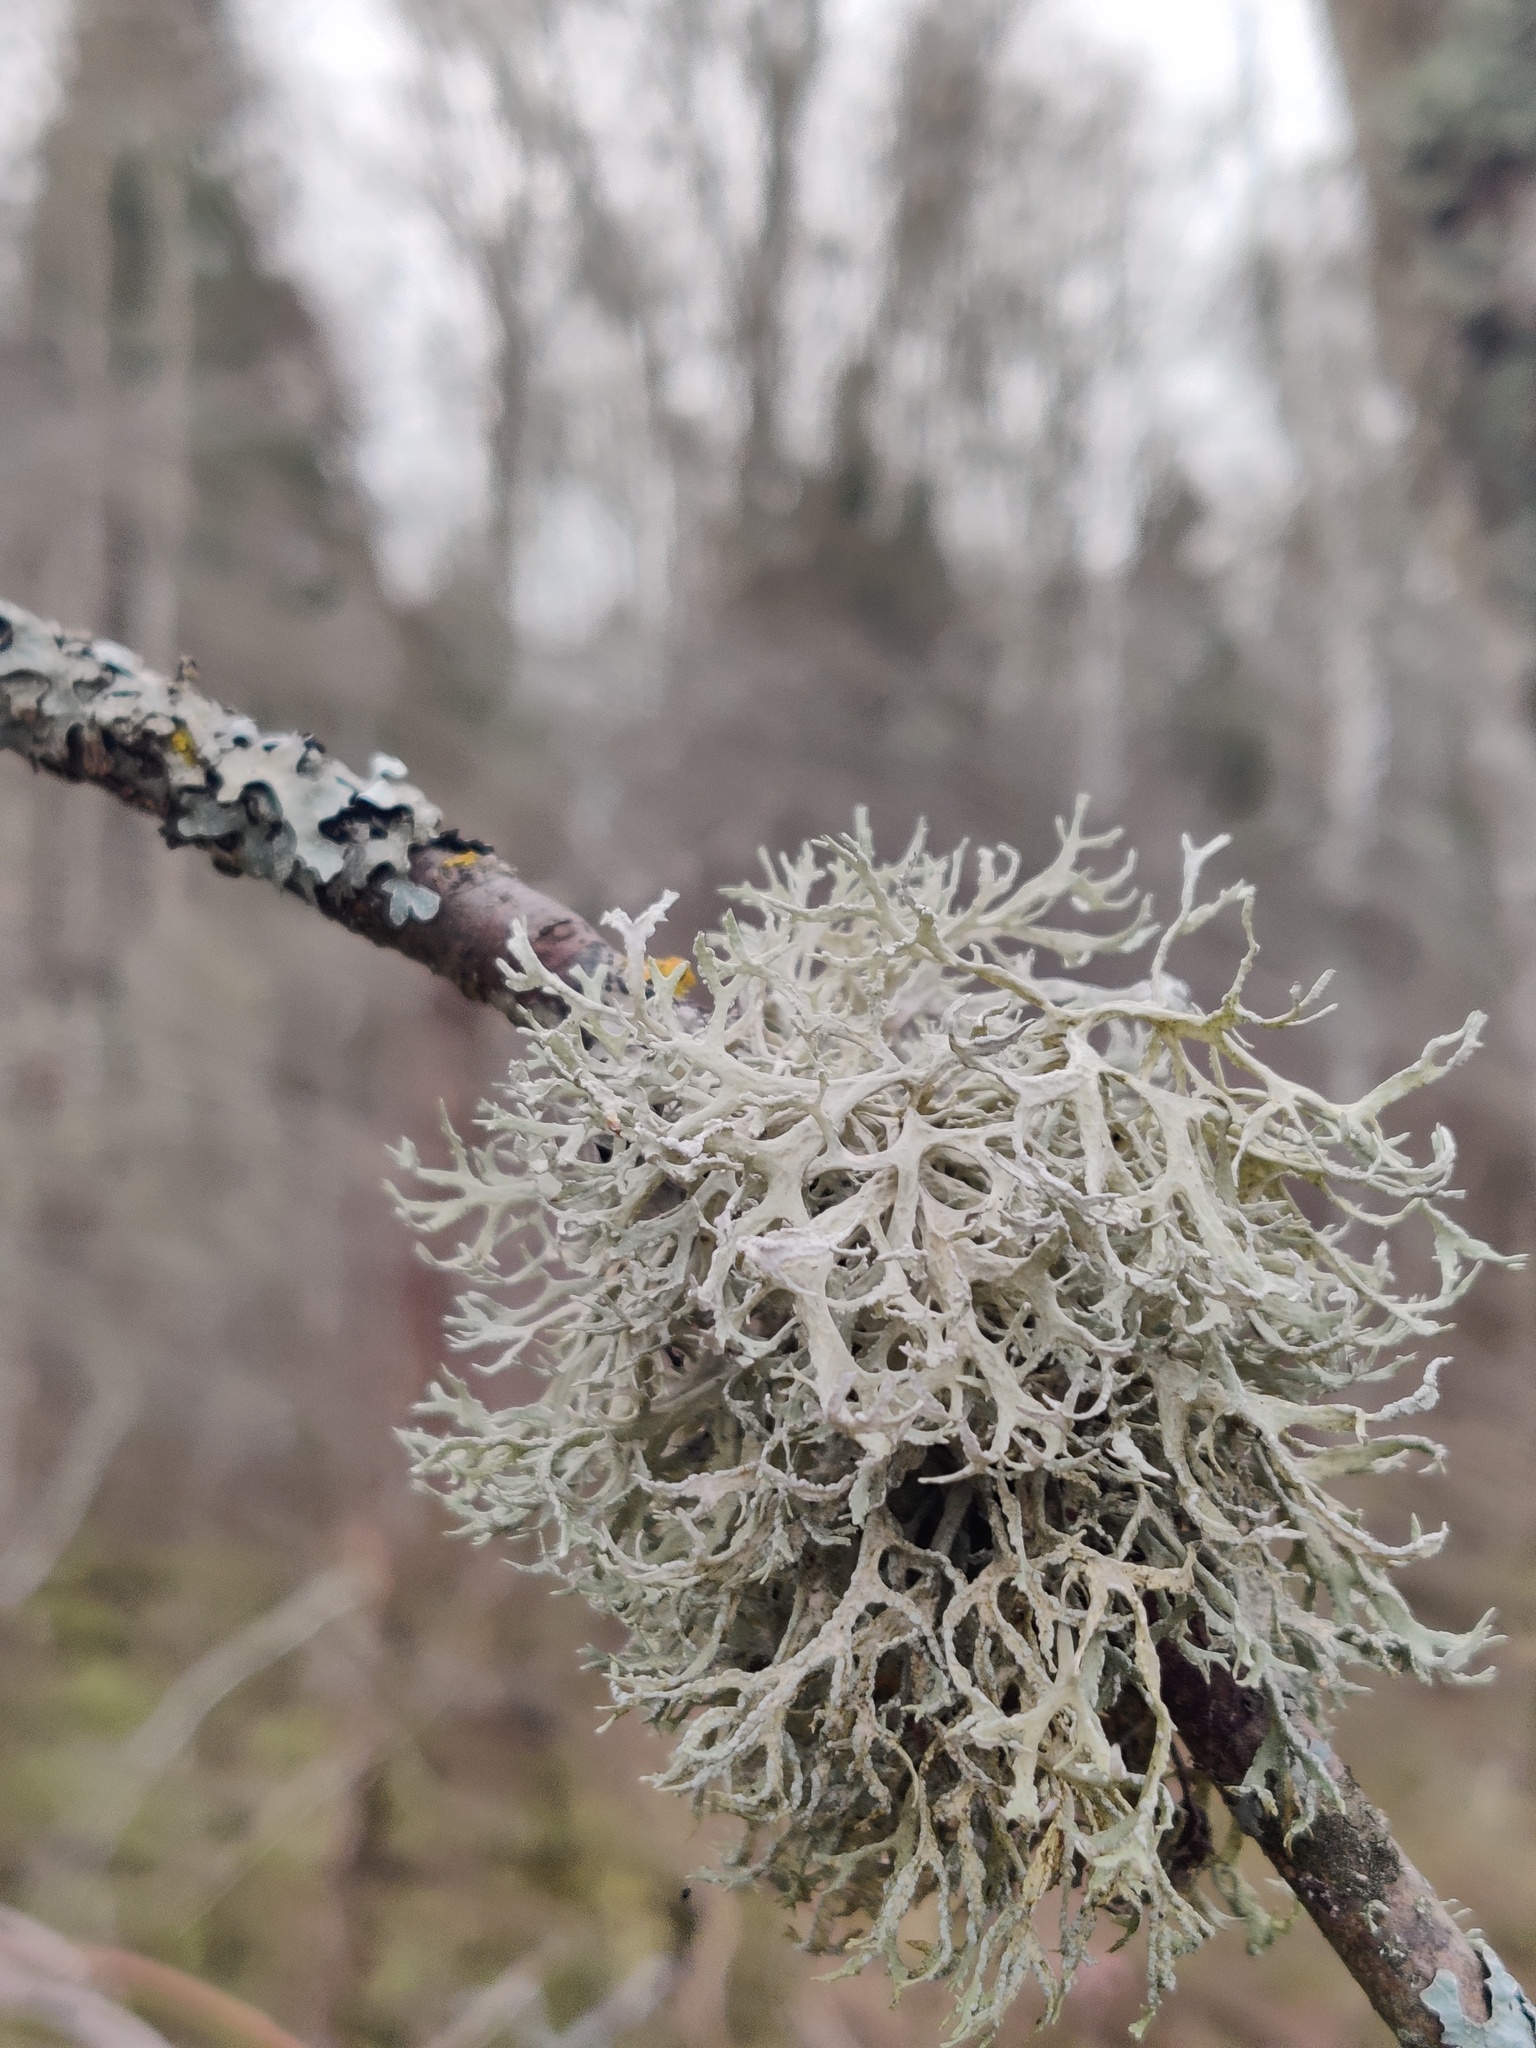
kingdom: Fungi
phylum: Ascomycota
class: Lecanoromycetes
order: Lecanorales
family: Parmeliaceae
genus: Evernia
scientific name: Evernia prunastri
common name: Oak moss
